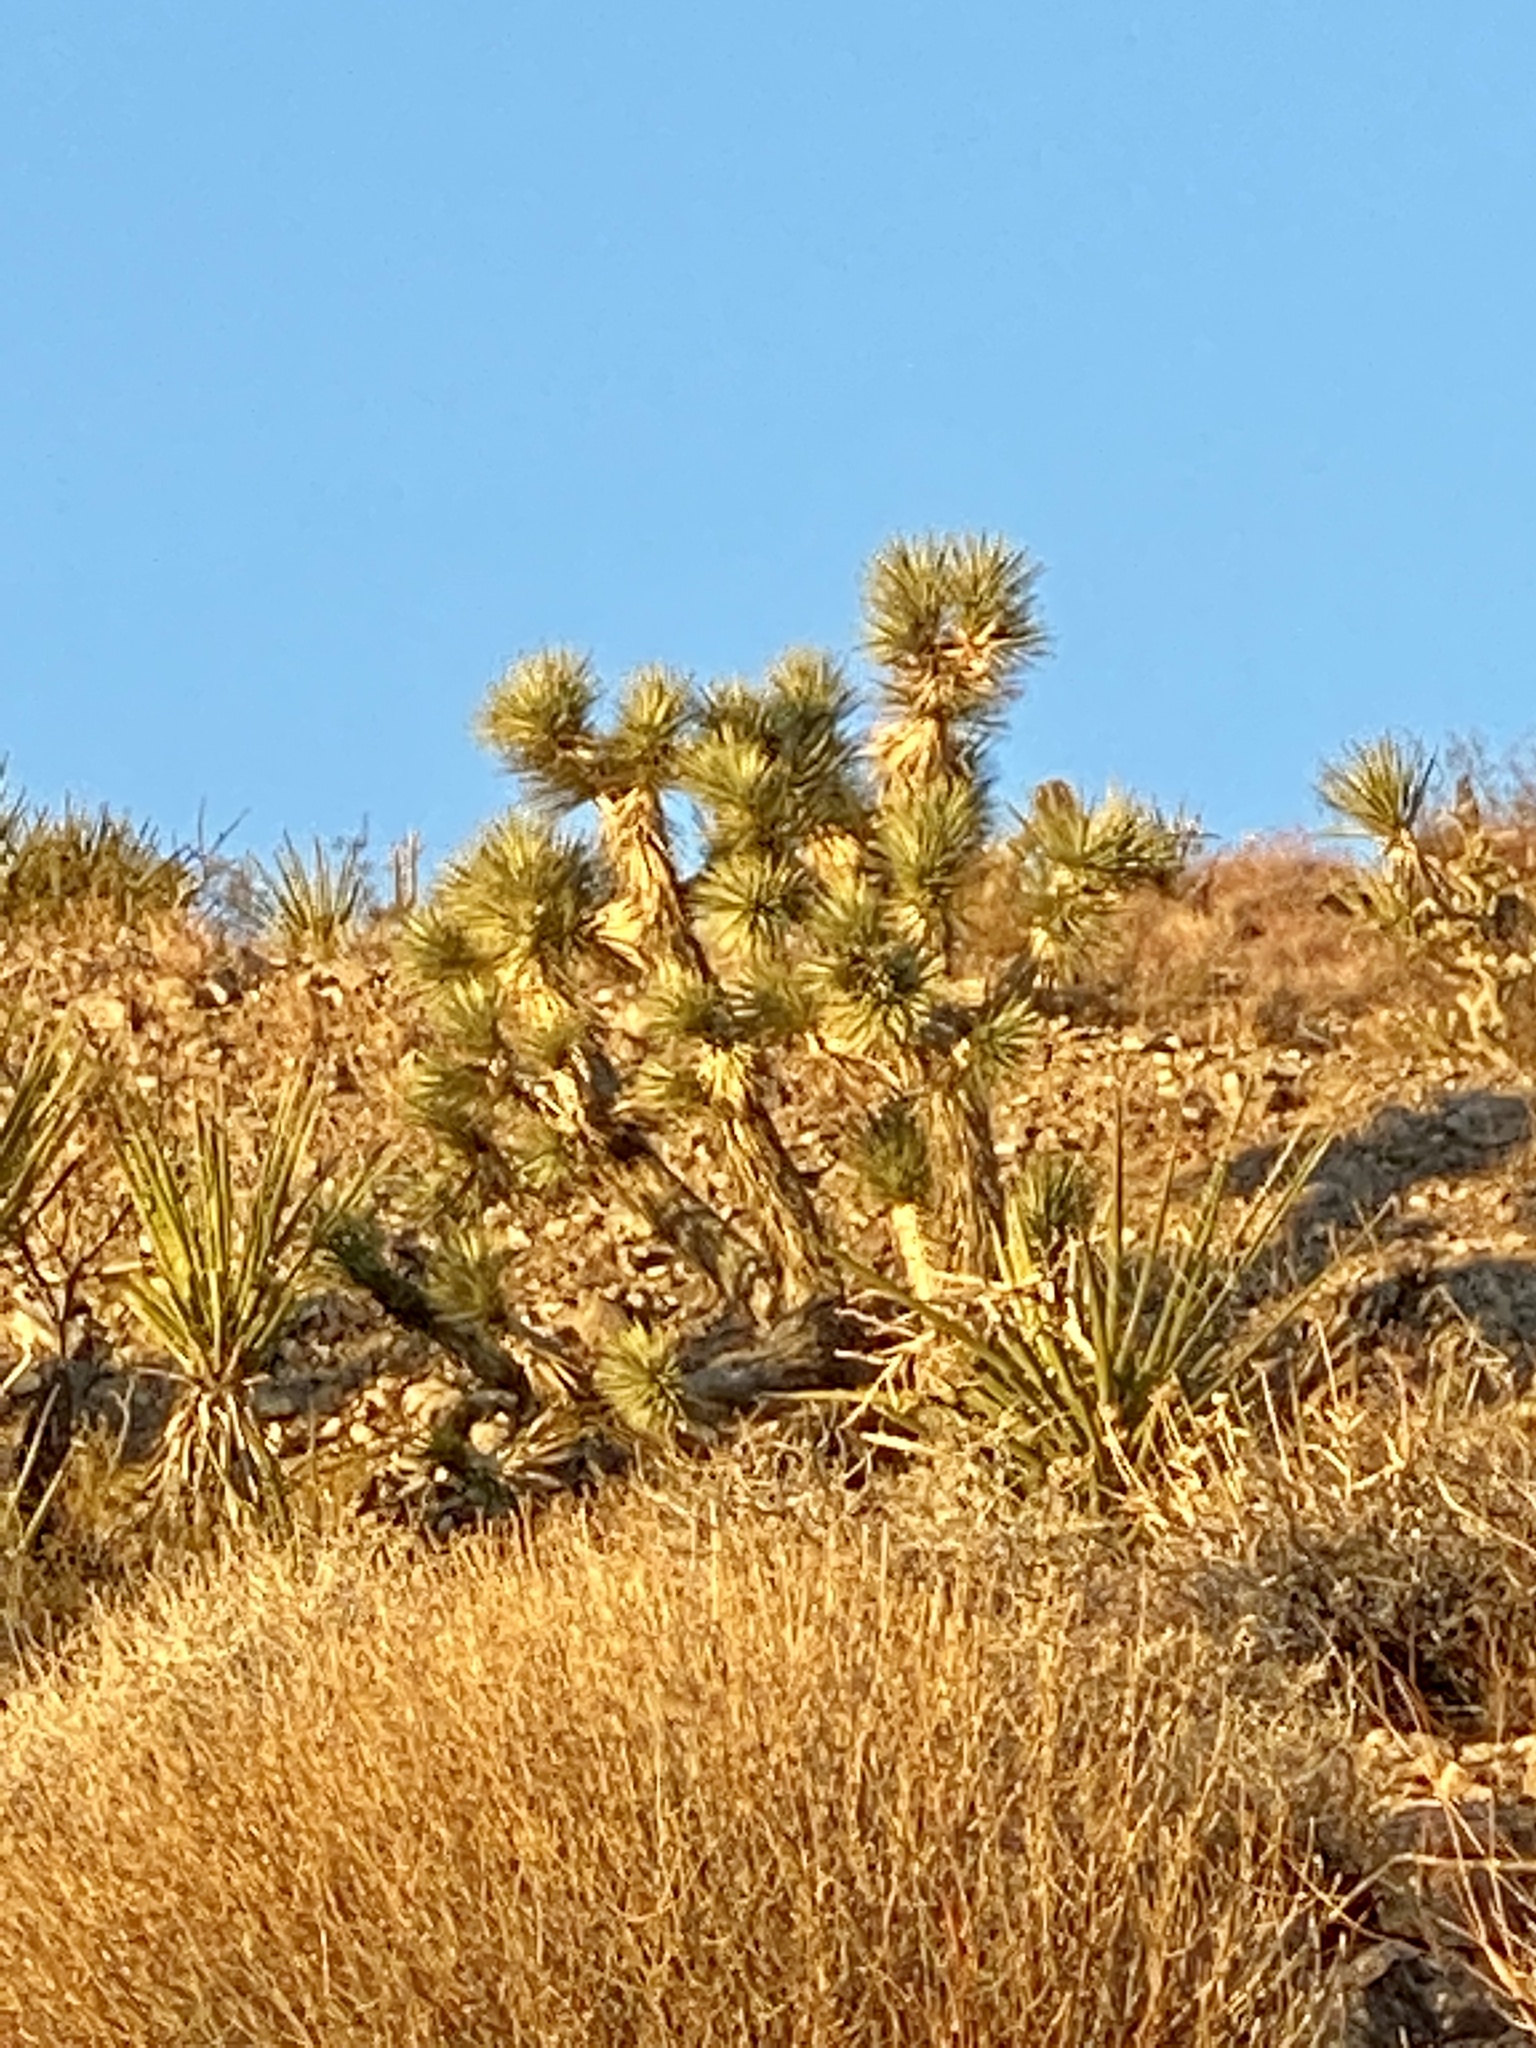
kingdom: Plantae
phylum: Tracheophyta
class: Liliopsida
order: Asparagales
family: Asparagaceae
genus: Yucca
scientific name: Yucca brevifolia
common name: Joshua tree
